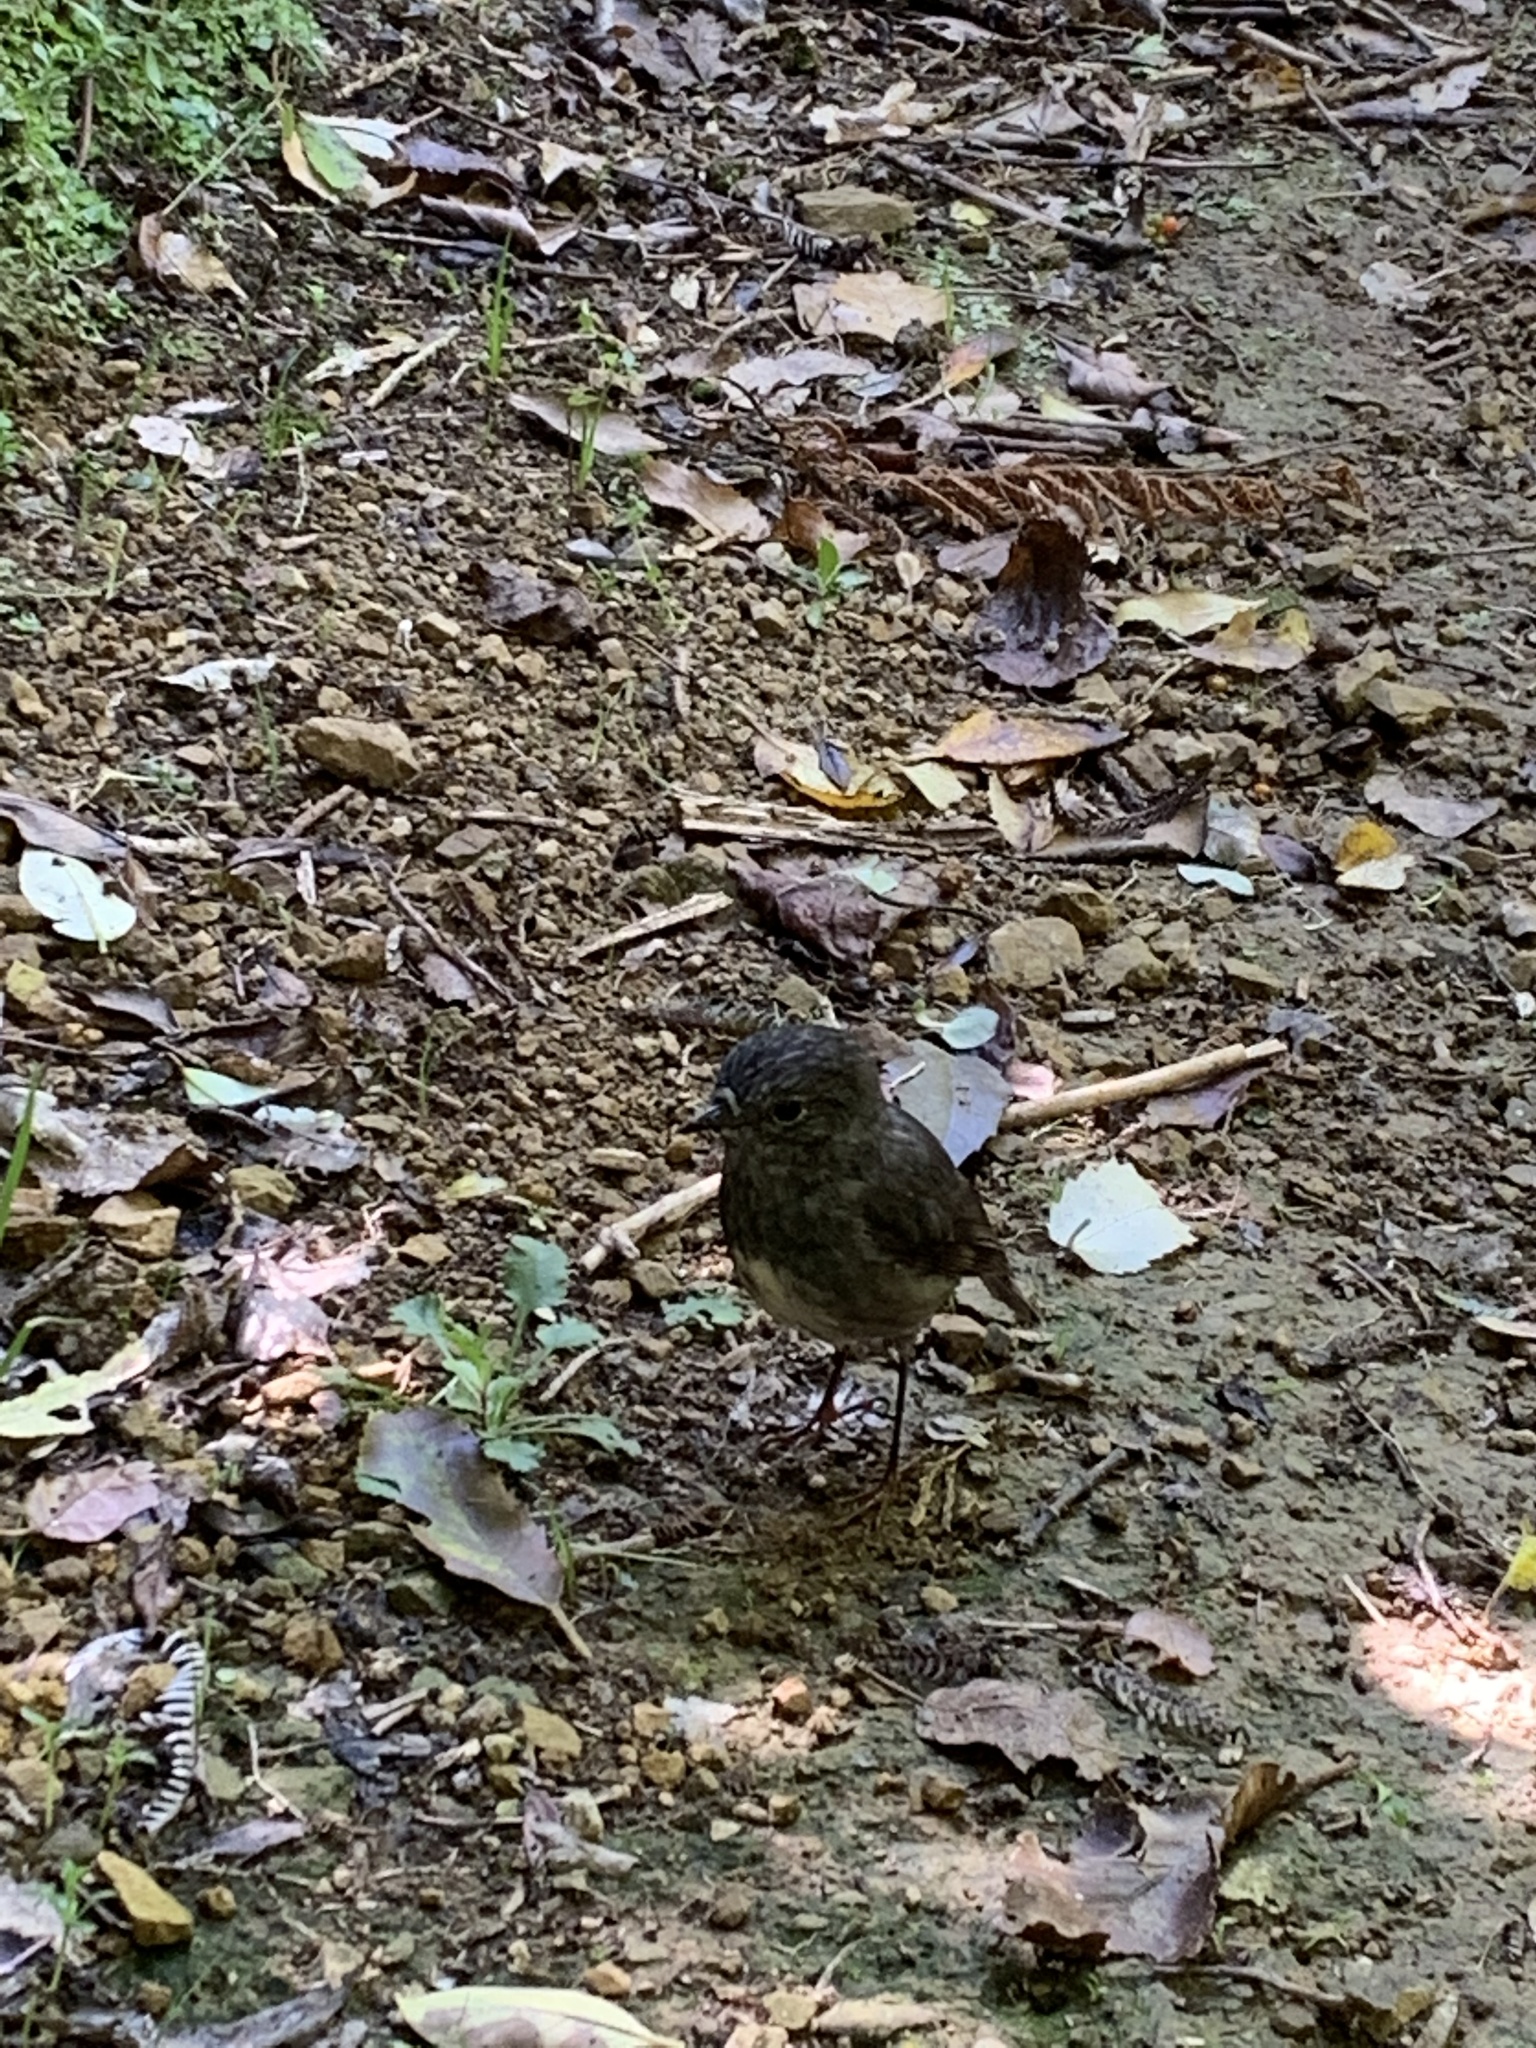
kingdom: Animalia
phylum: Chordata
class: Aves
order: Passeriformes
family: Petroicidae
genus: Petroica
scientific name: Petroica australis
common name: New zealand robin
